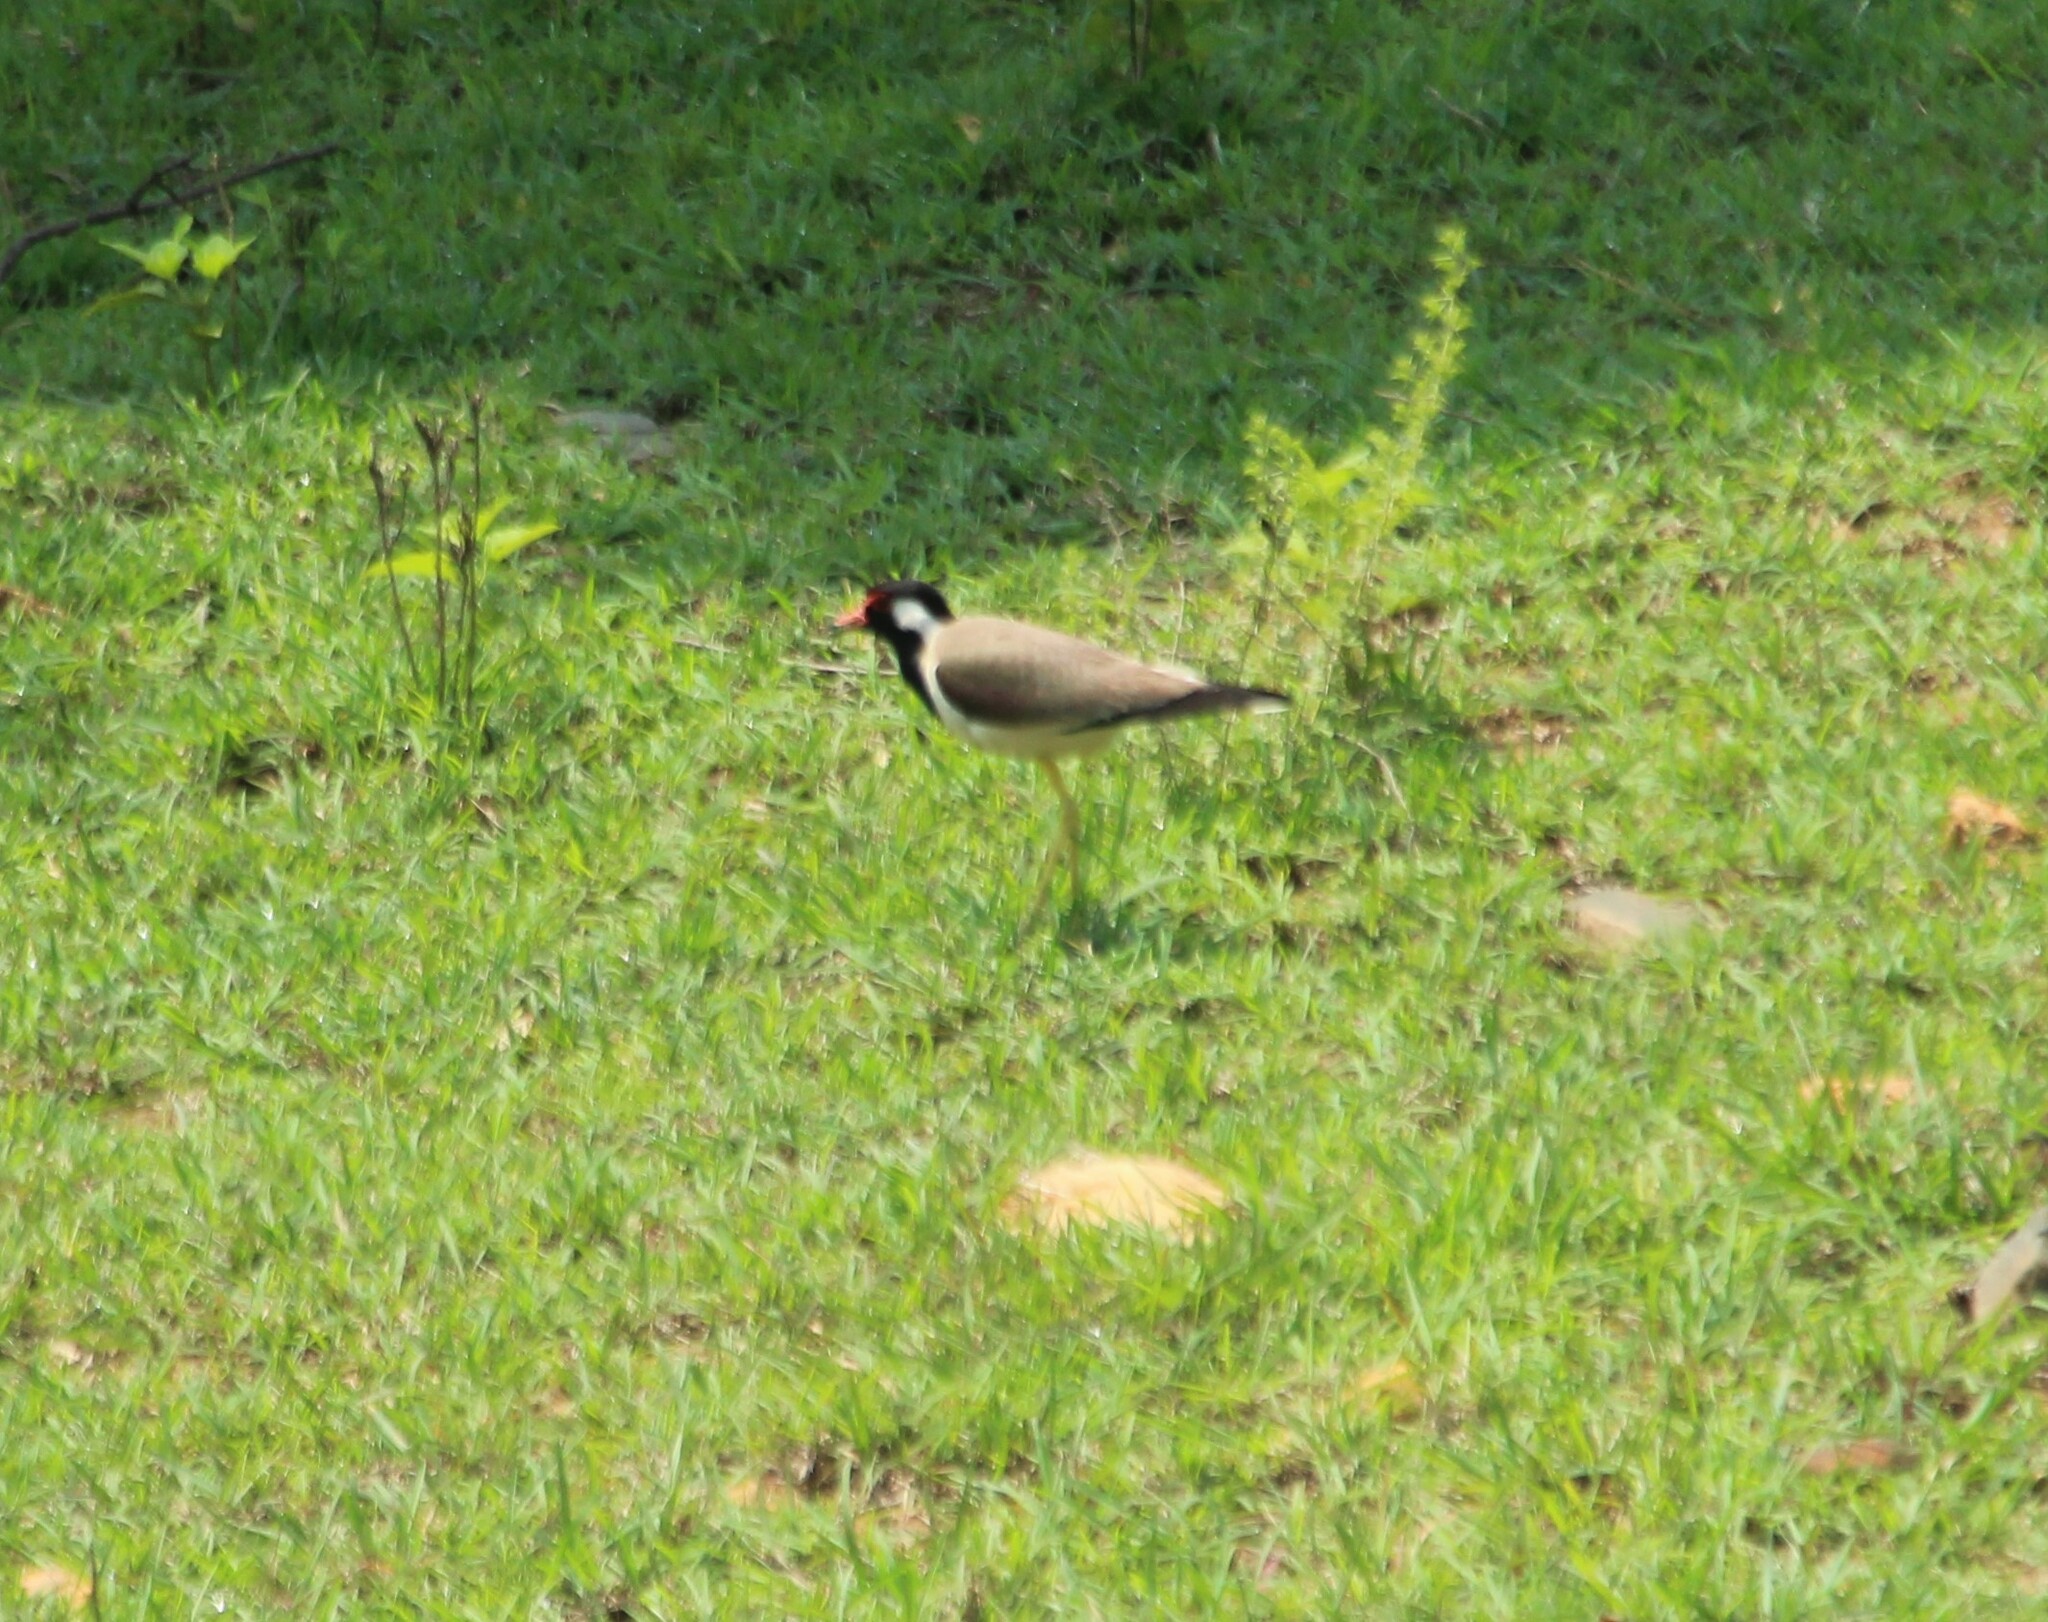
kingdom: Animalia
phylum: Chordata
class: Aves
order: Charadriiformes
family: Charadriidae
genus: Vanellus
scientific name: Vanellus indicus
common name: Red-wattled lapwing
